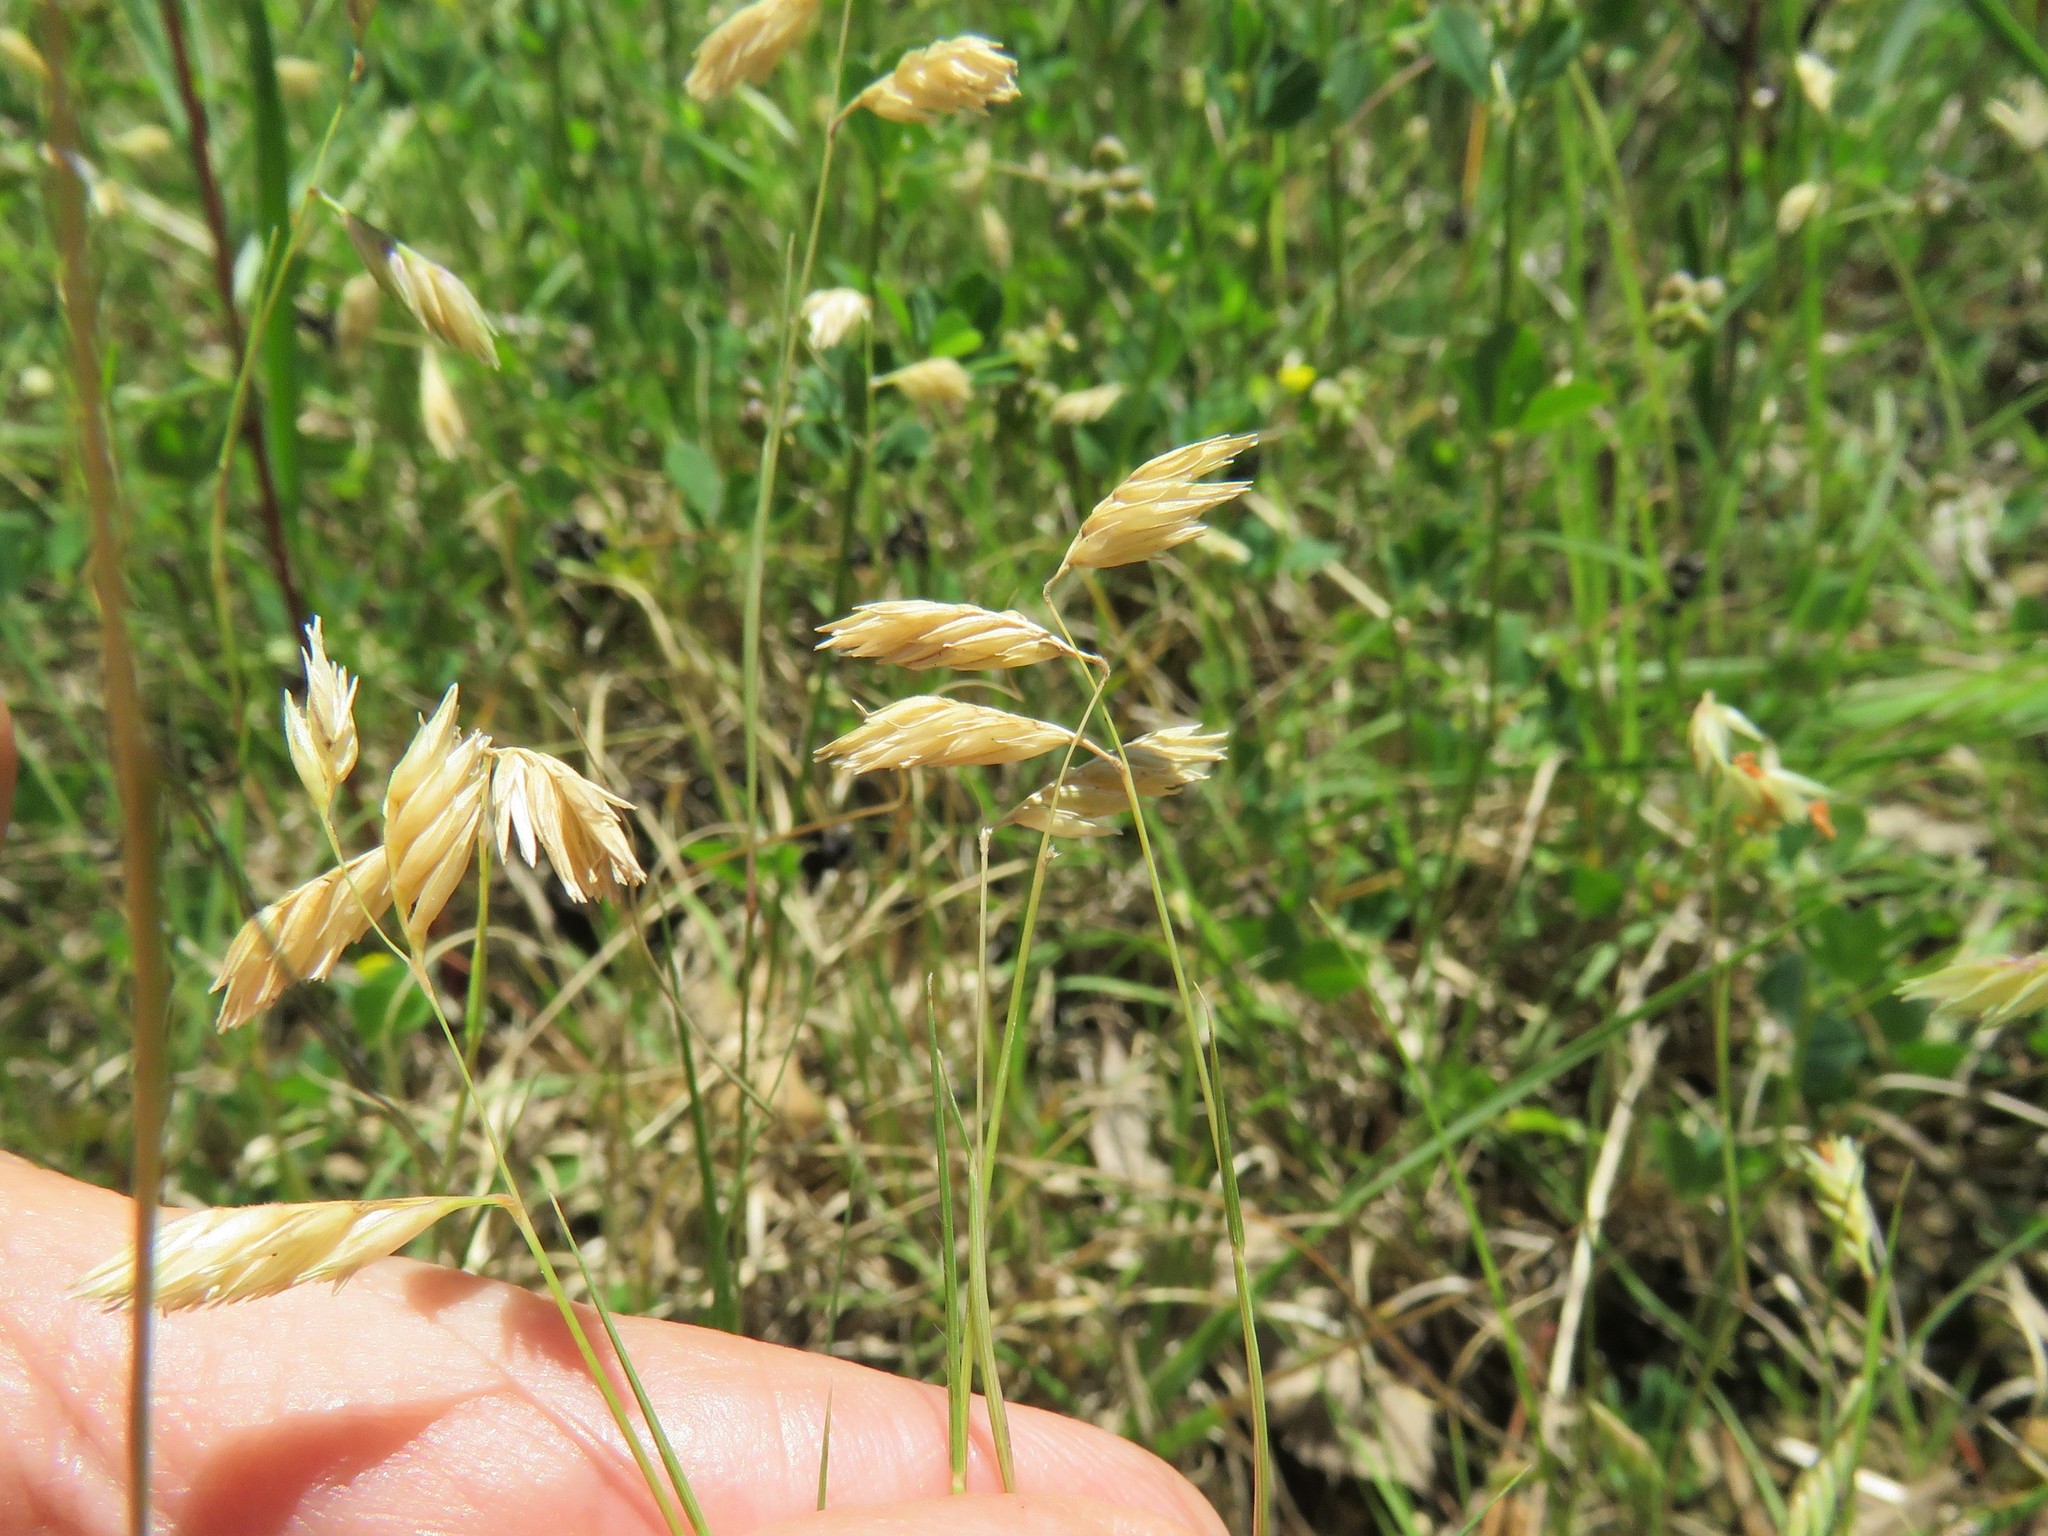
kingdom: Plantae
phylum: Tracheophyta
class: Liliopsida
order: Poales
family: Poaceae
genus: Bouteloua
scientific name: Bouteloua dactyloides
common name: Buffalo grass
